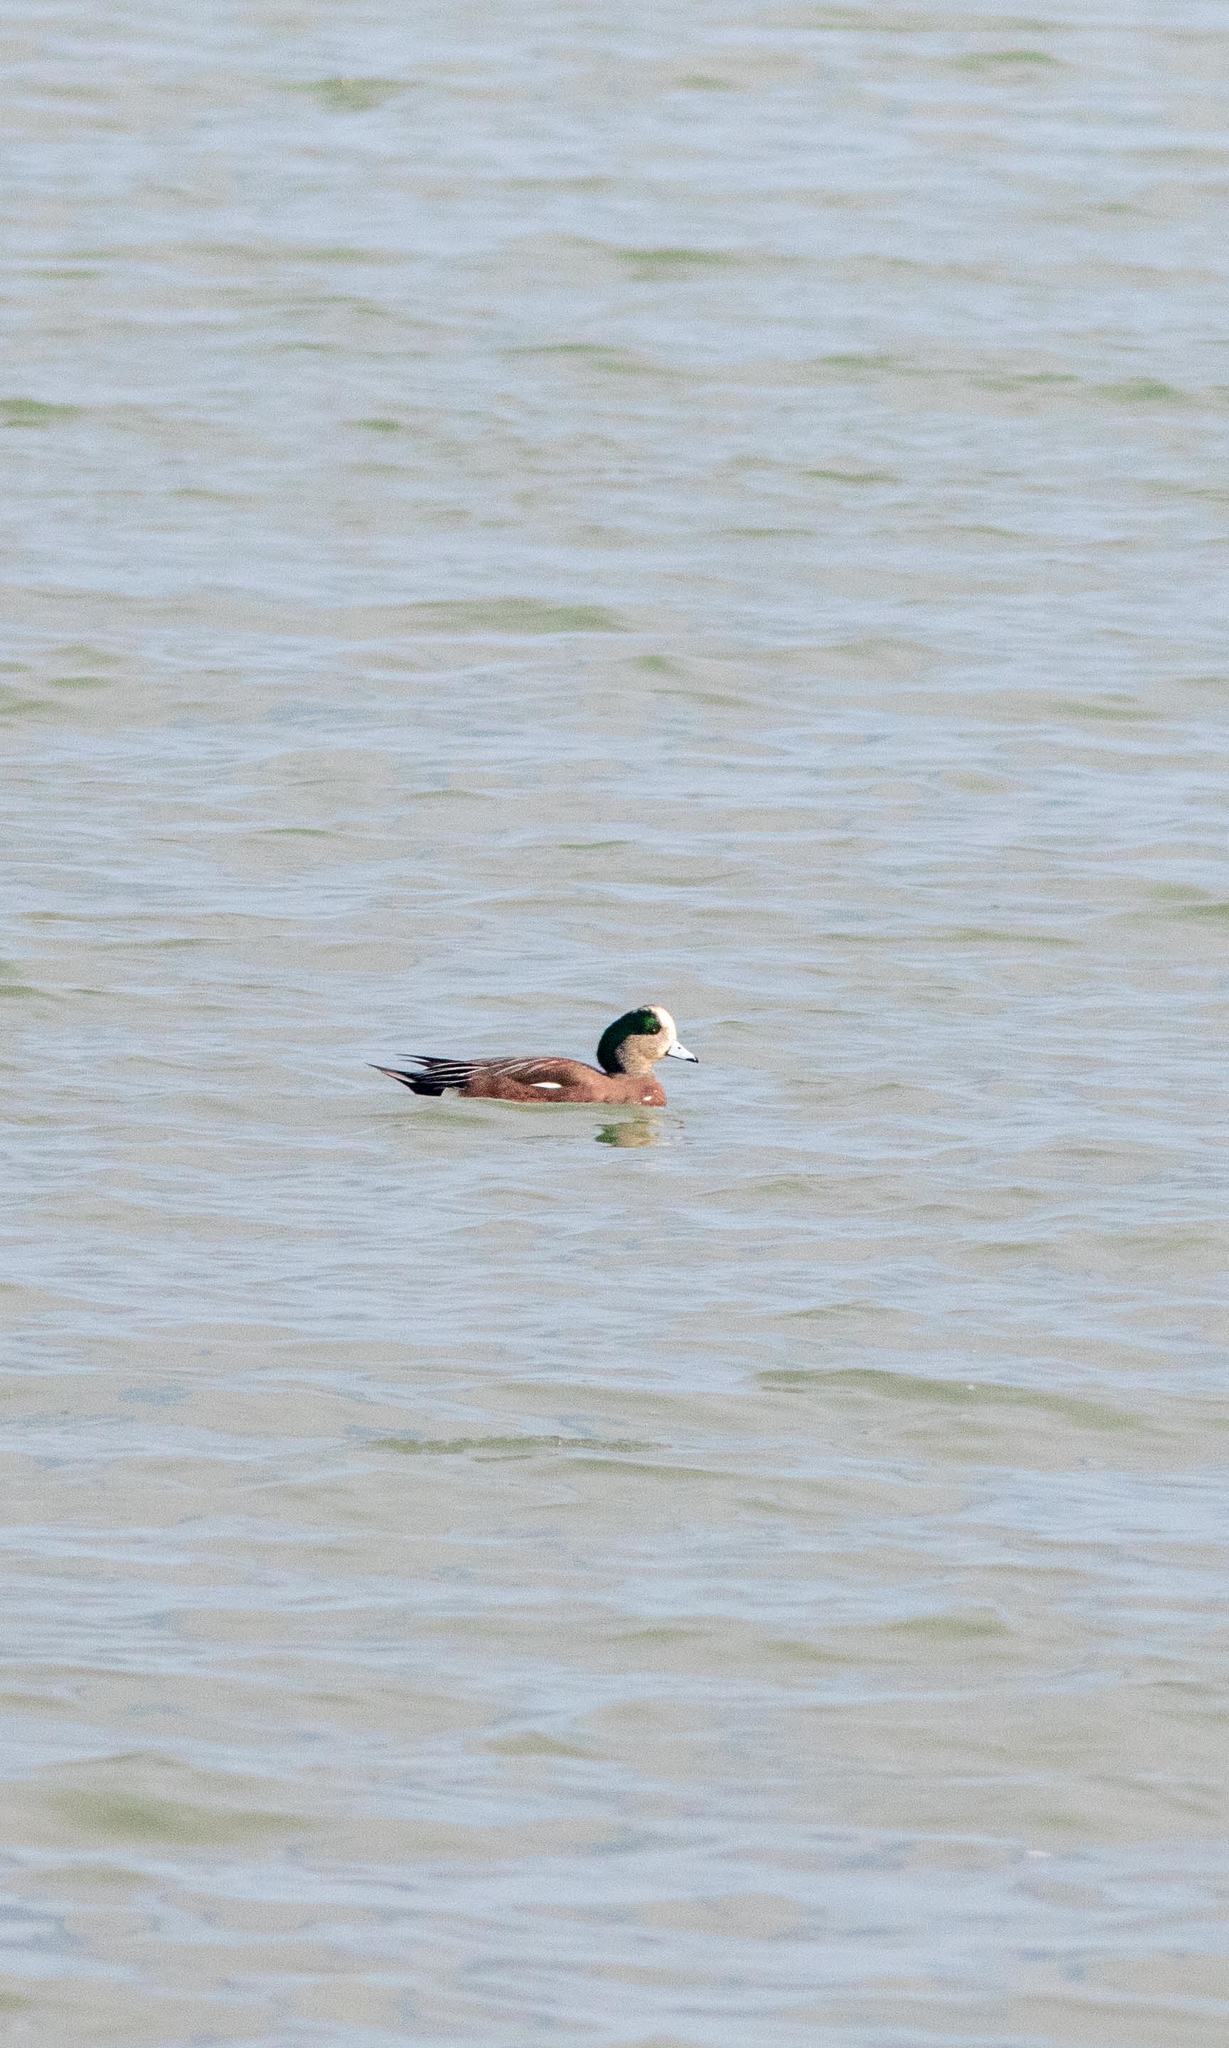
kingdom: Animalia
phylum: Chordata
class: Aves
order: Anseriformes
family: Anatidae
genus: Mareca
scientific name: Mareca americana
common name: American wigeon
